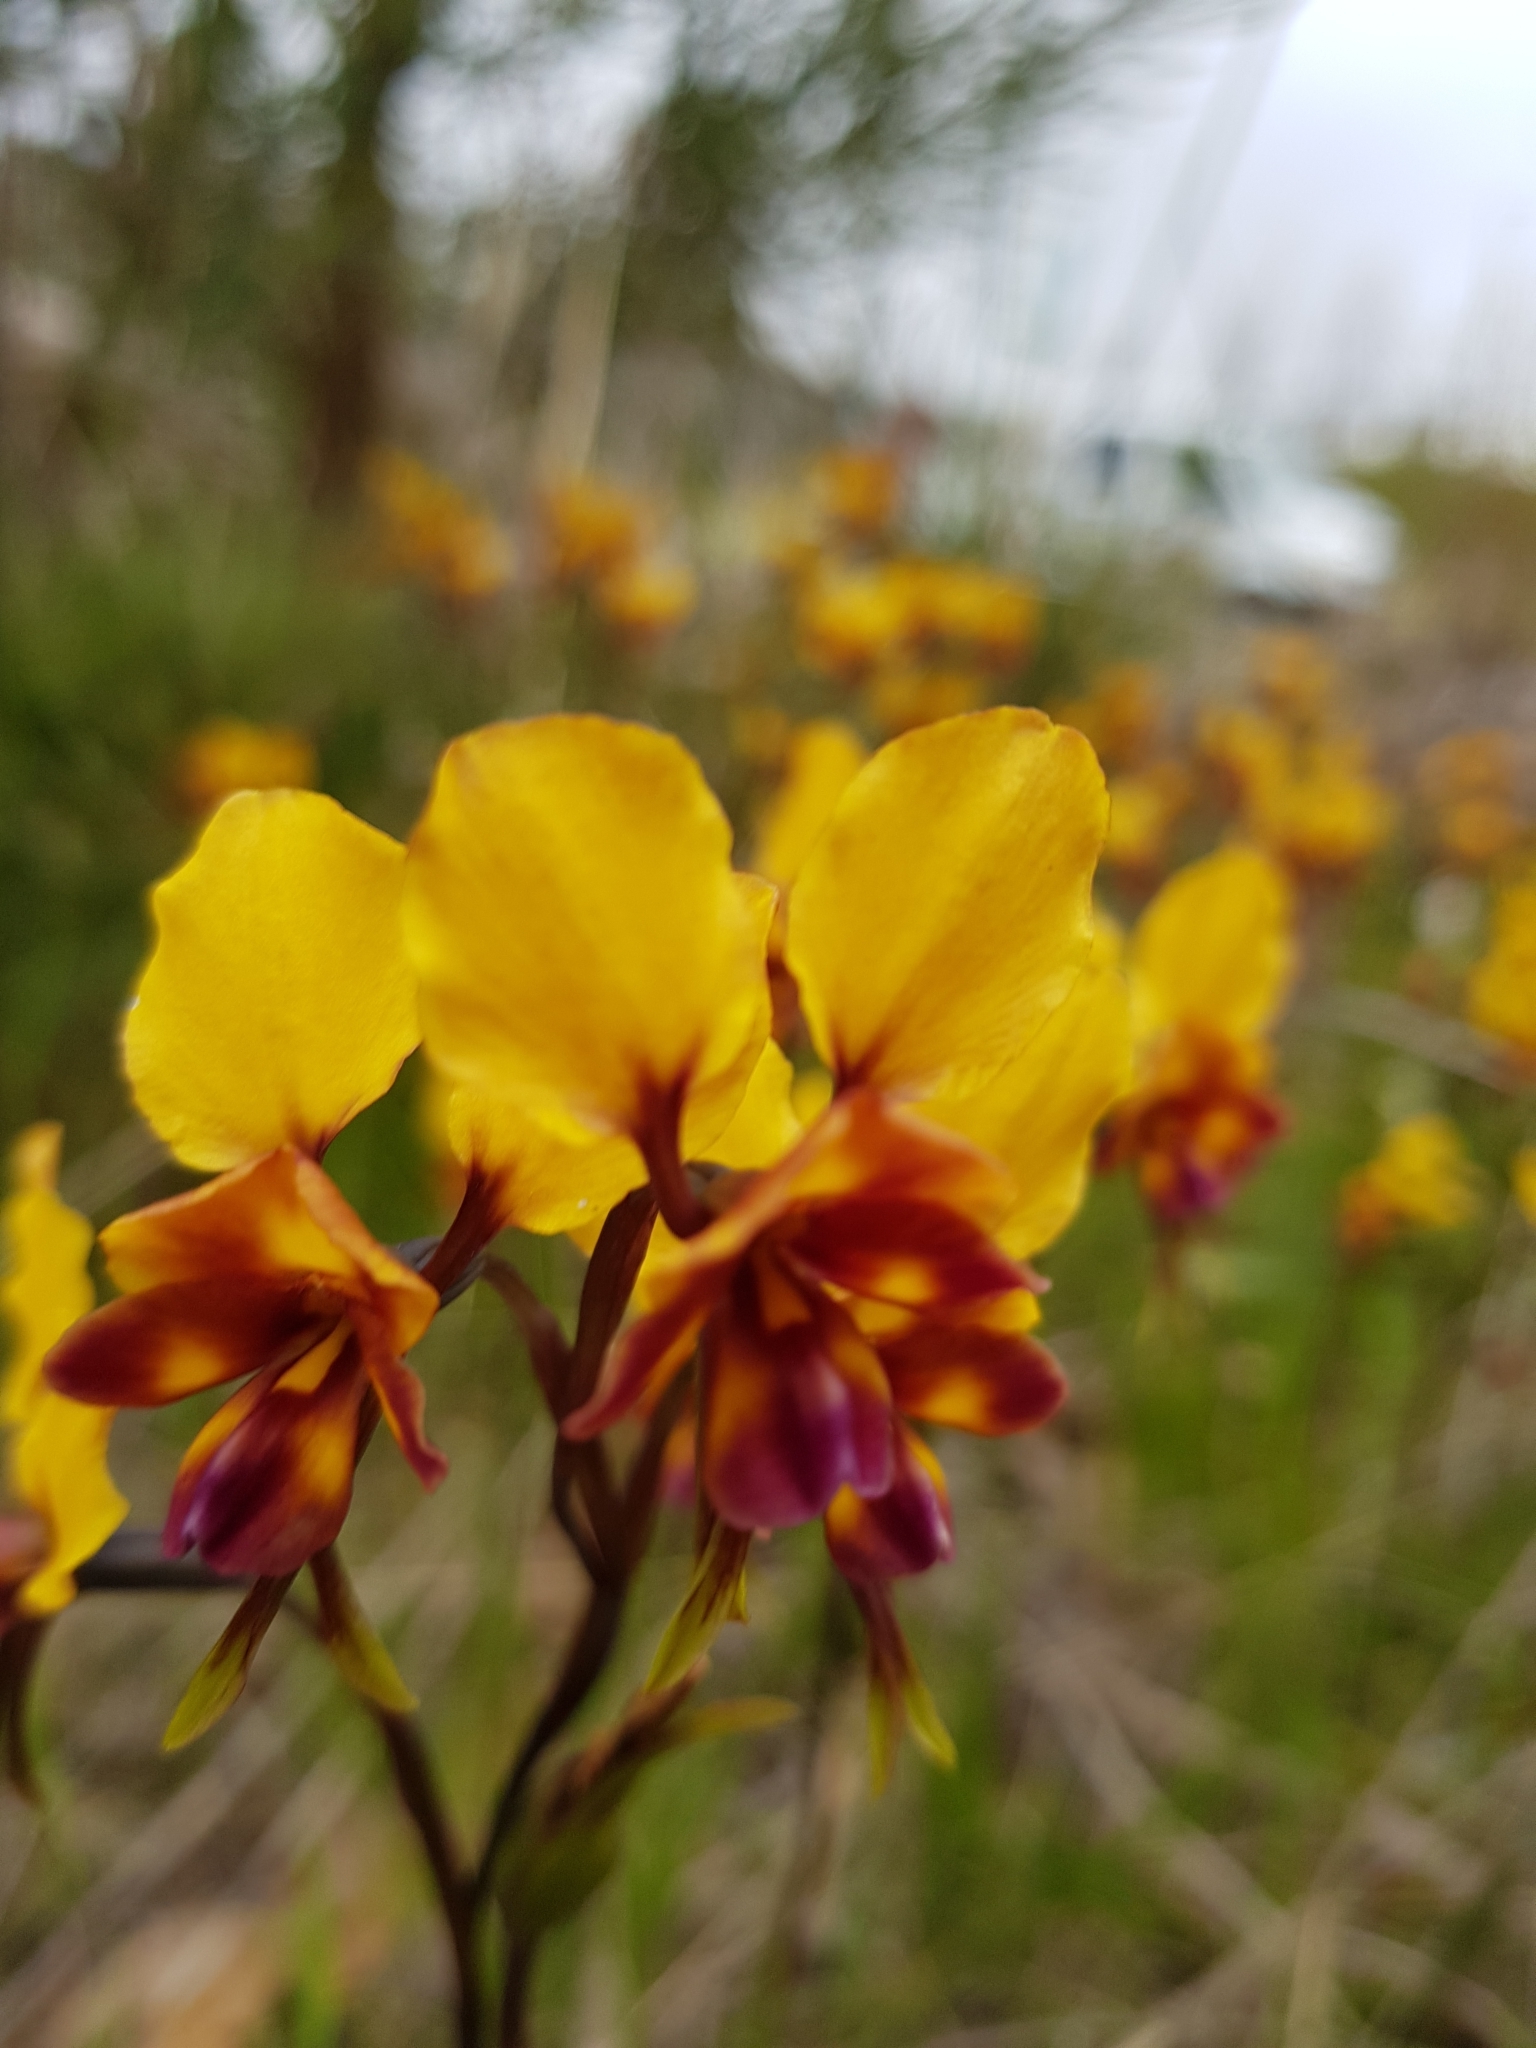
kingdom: Plantae
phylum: Tracheophyta
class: Liliopsida
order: Asparagales
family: Orchidaceae
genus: Diuris
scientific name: Diuris magnifica
